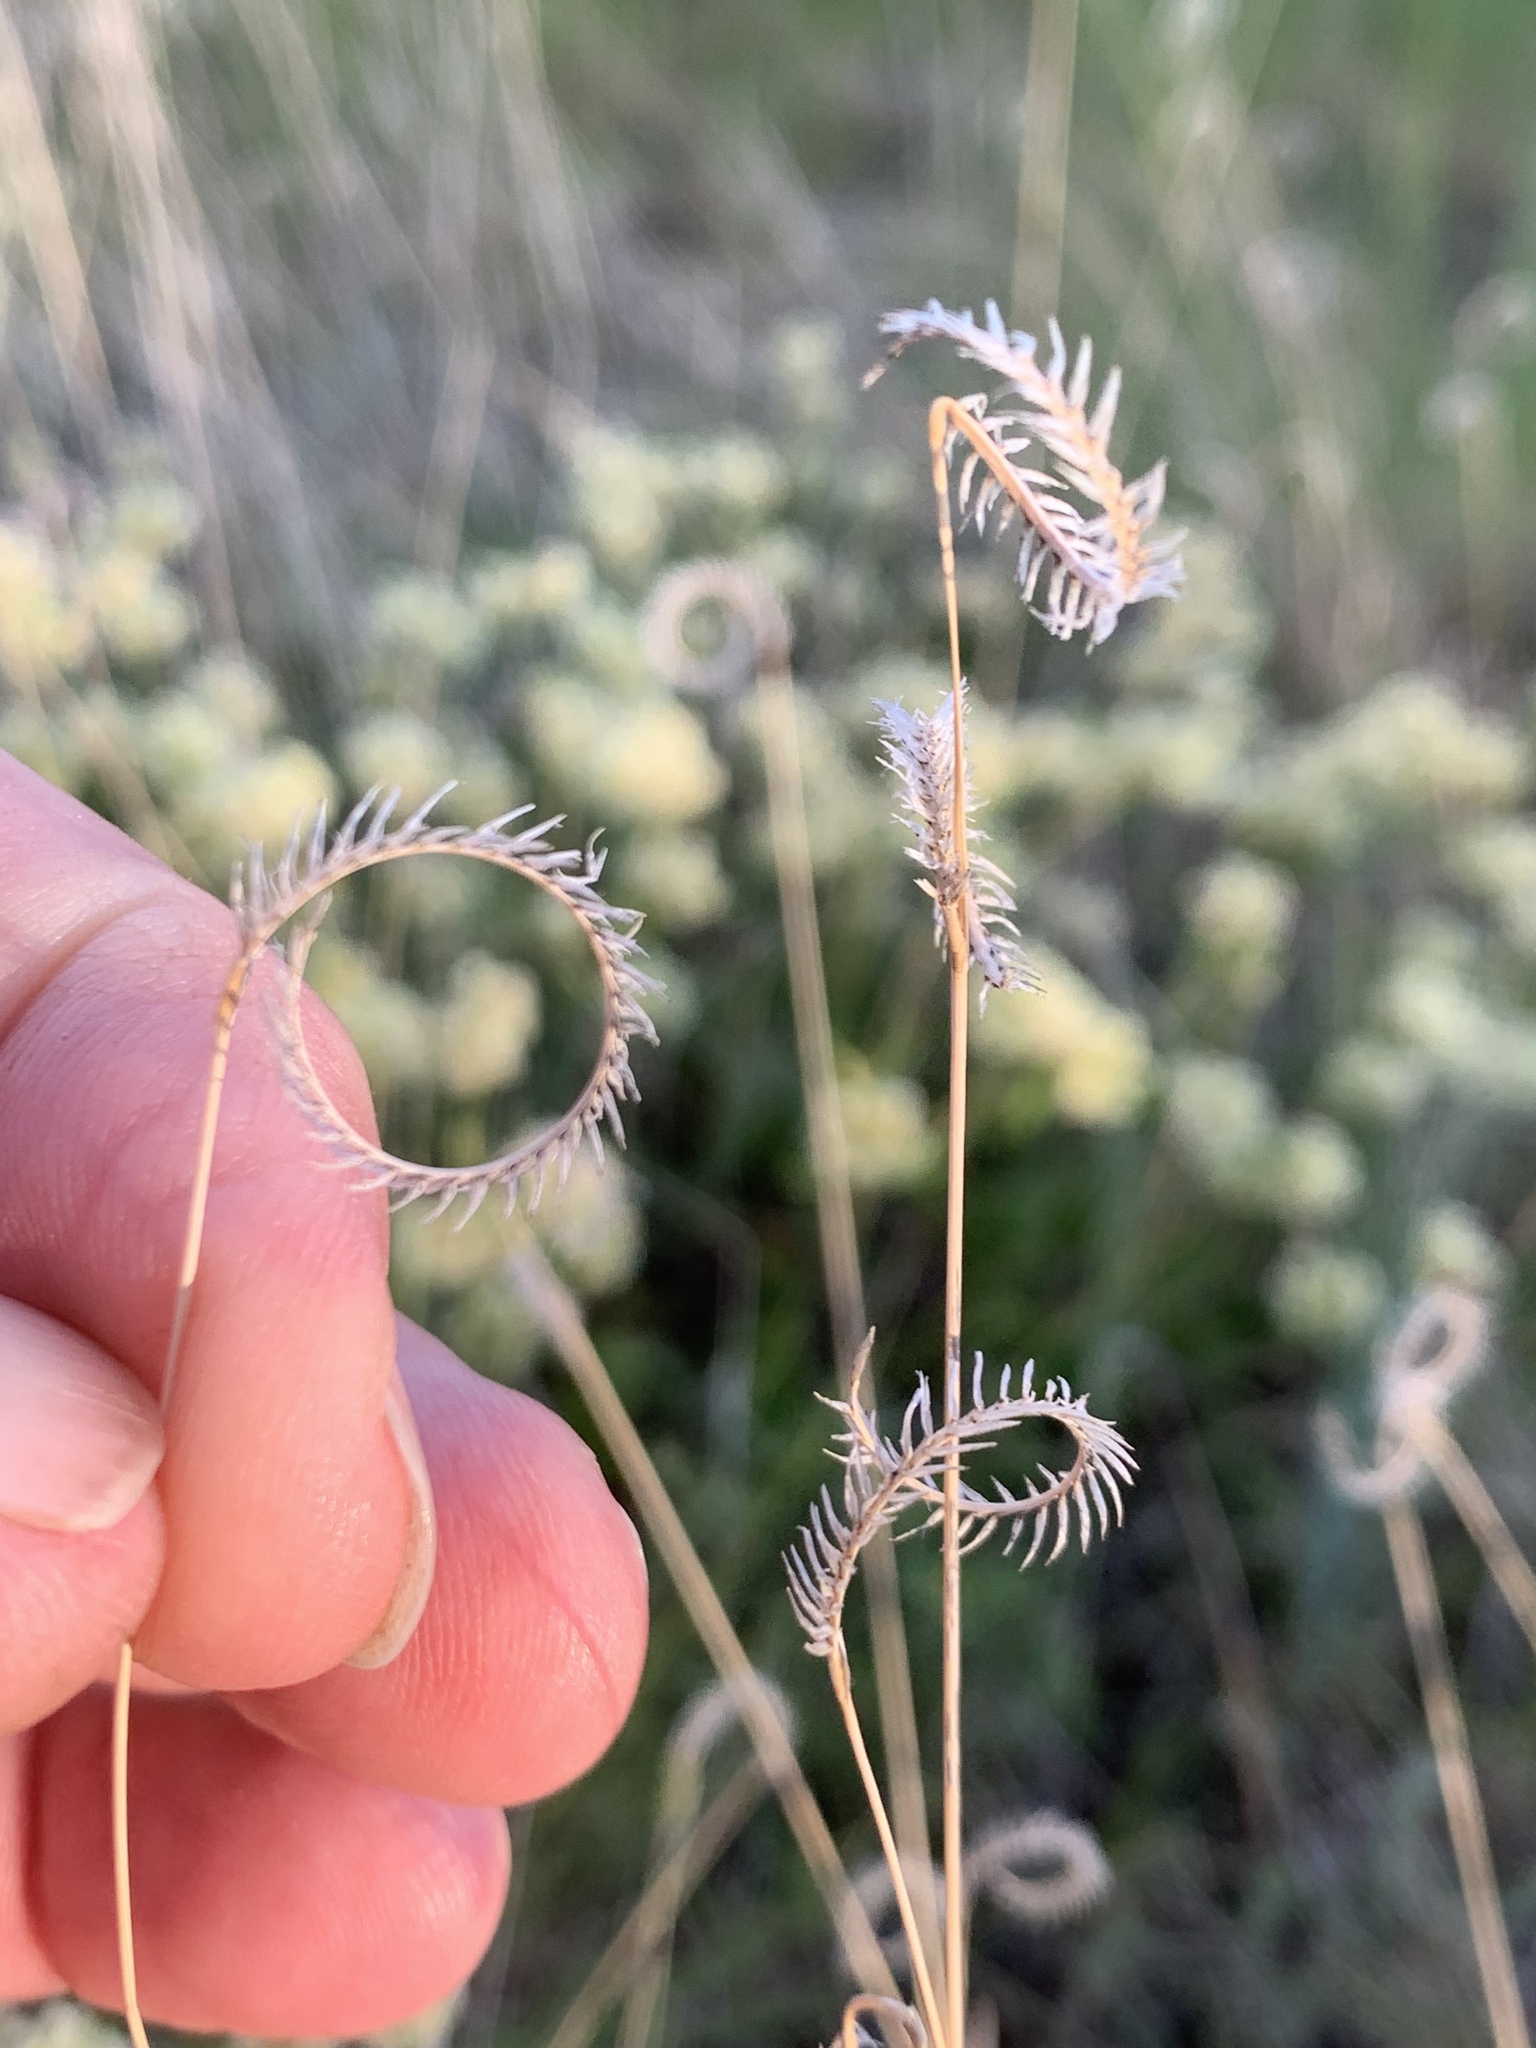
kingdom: Plantae
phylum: Tracheophyta
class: Liliopsida
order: Poales
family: Poaceae
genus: Bouteloua
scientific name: Bouteloua gracilis
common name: Blue grama
